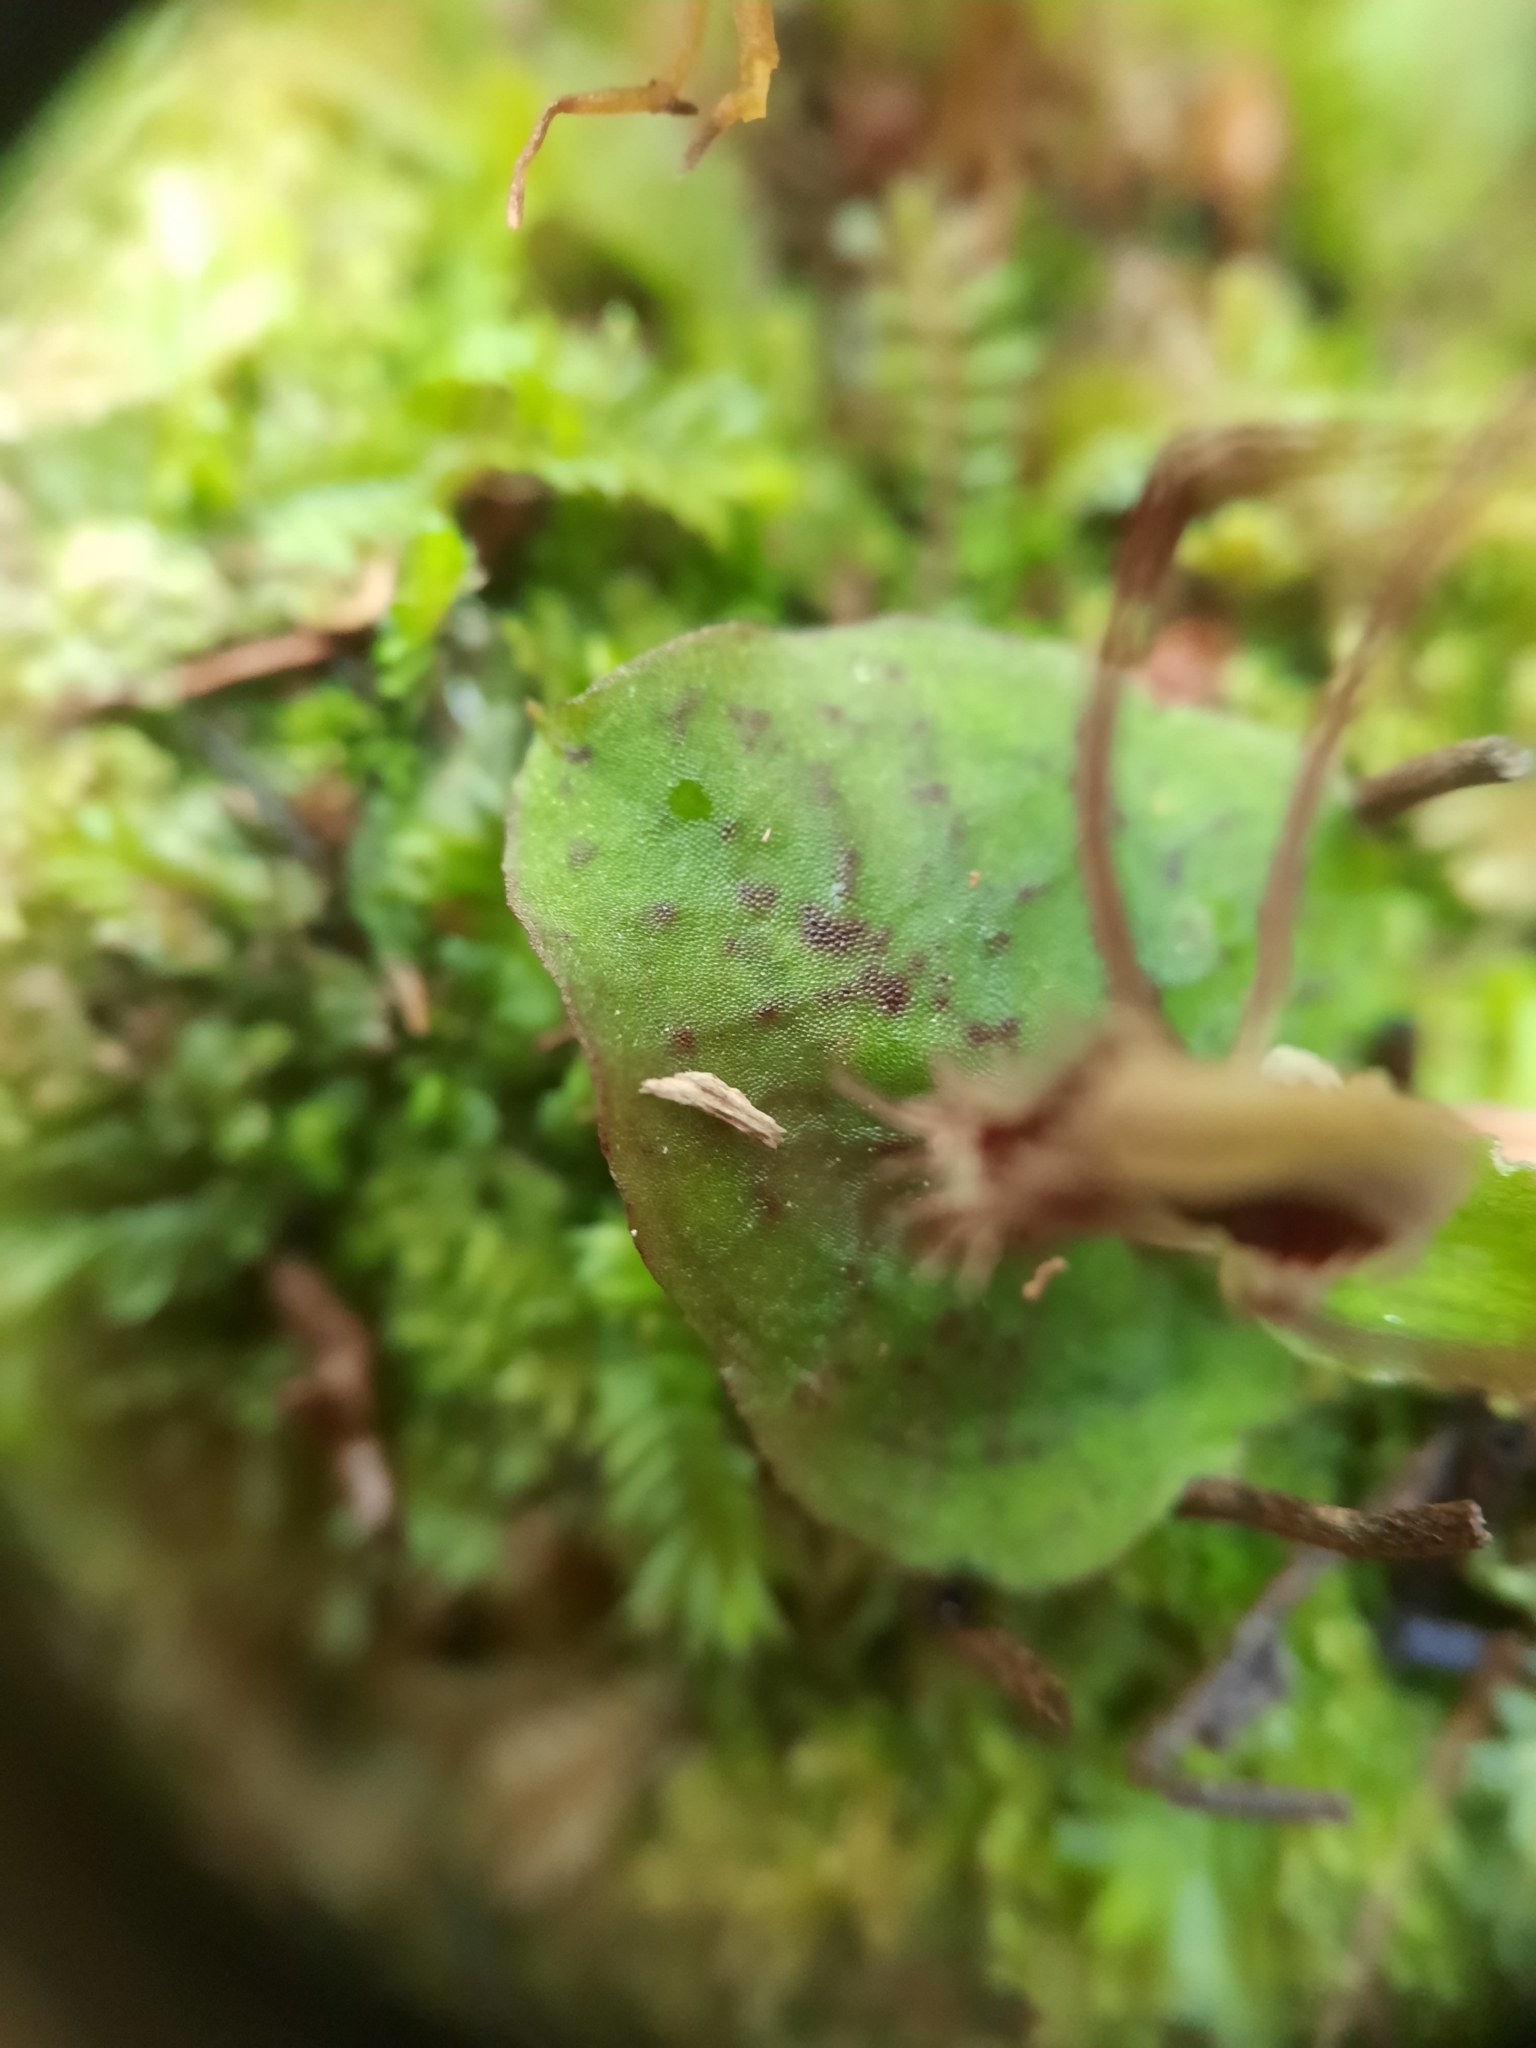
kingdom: Plantae
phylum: Tracheophyta
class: Liliopsida
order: Asparagales
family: Orchidaceae
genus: Corybas
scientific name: Corybas oblongus
